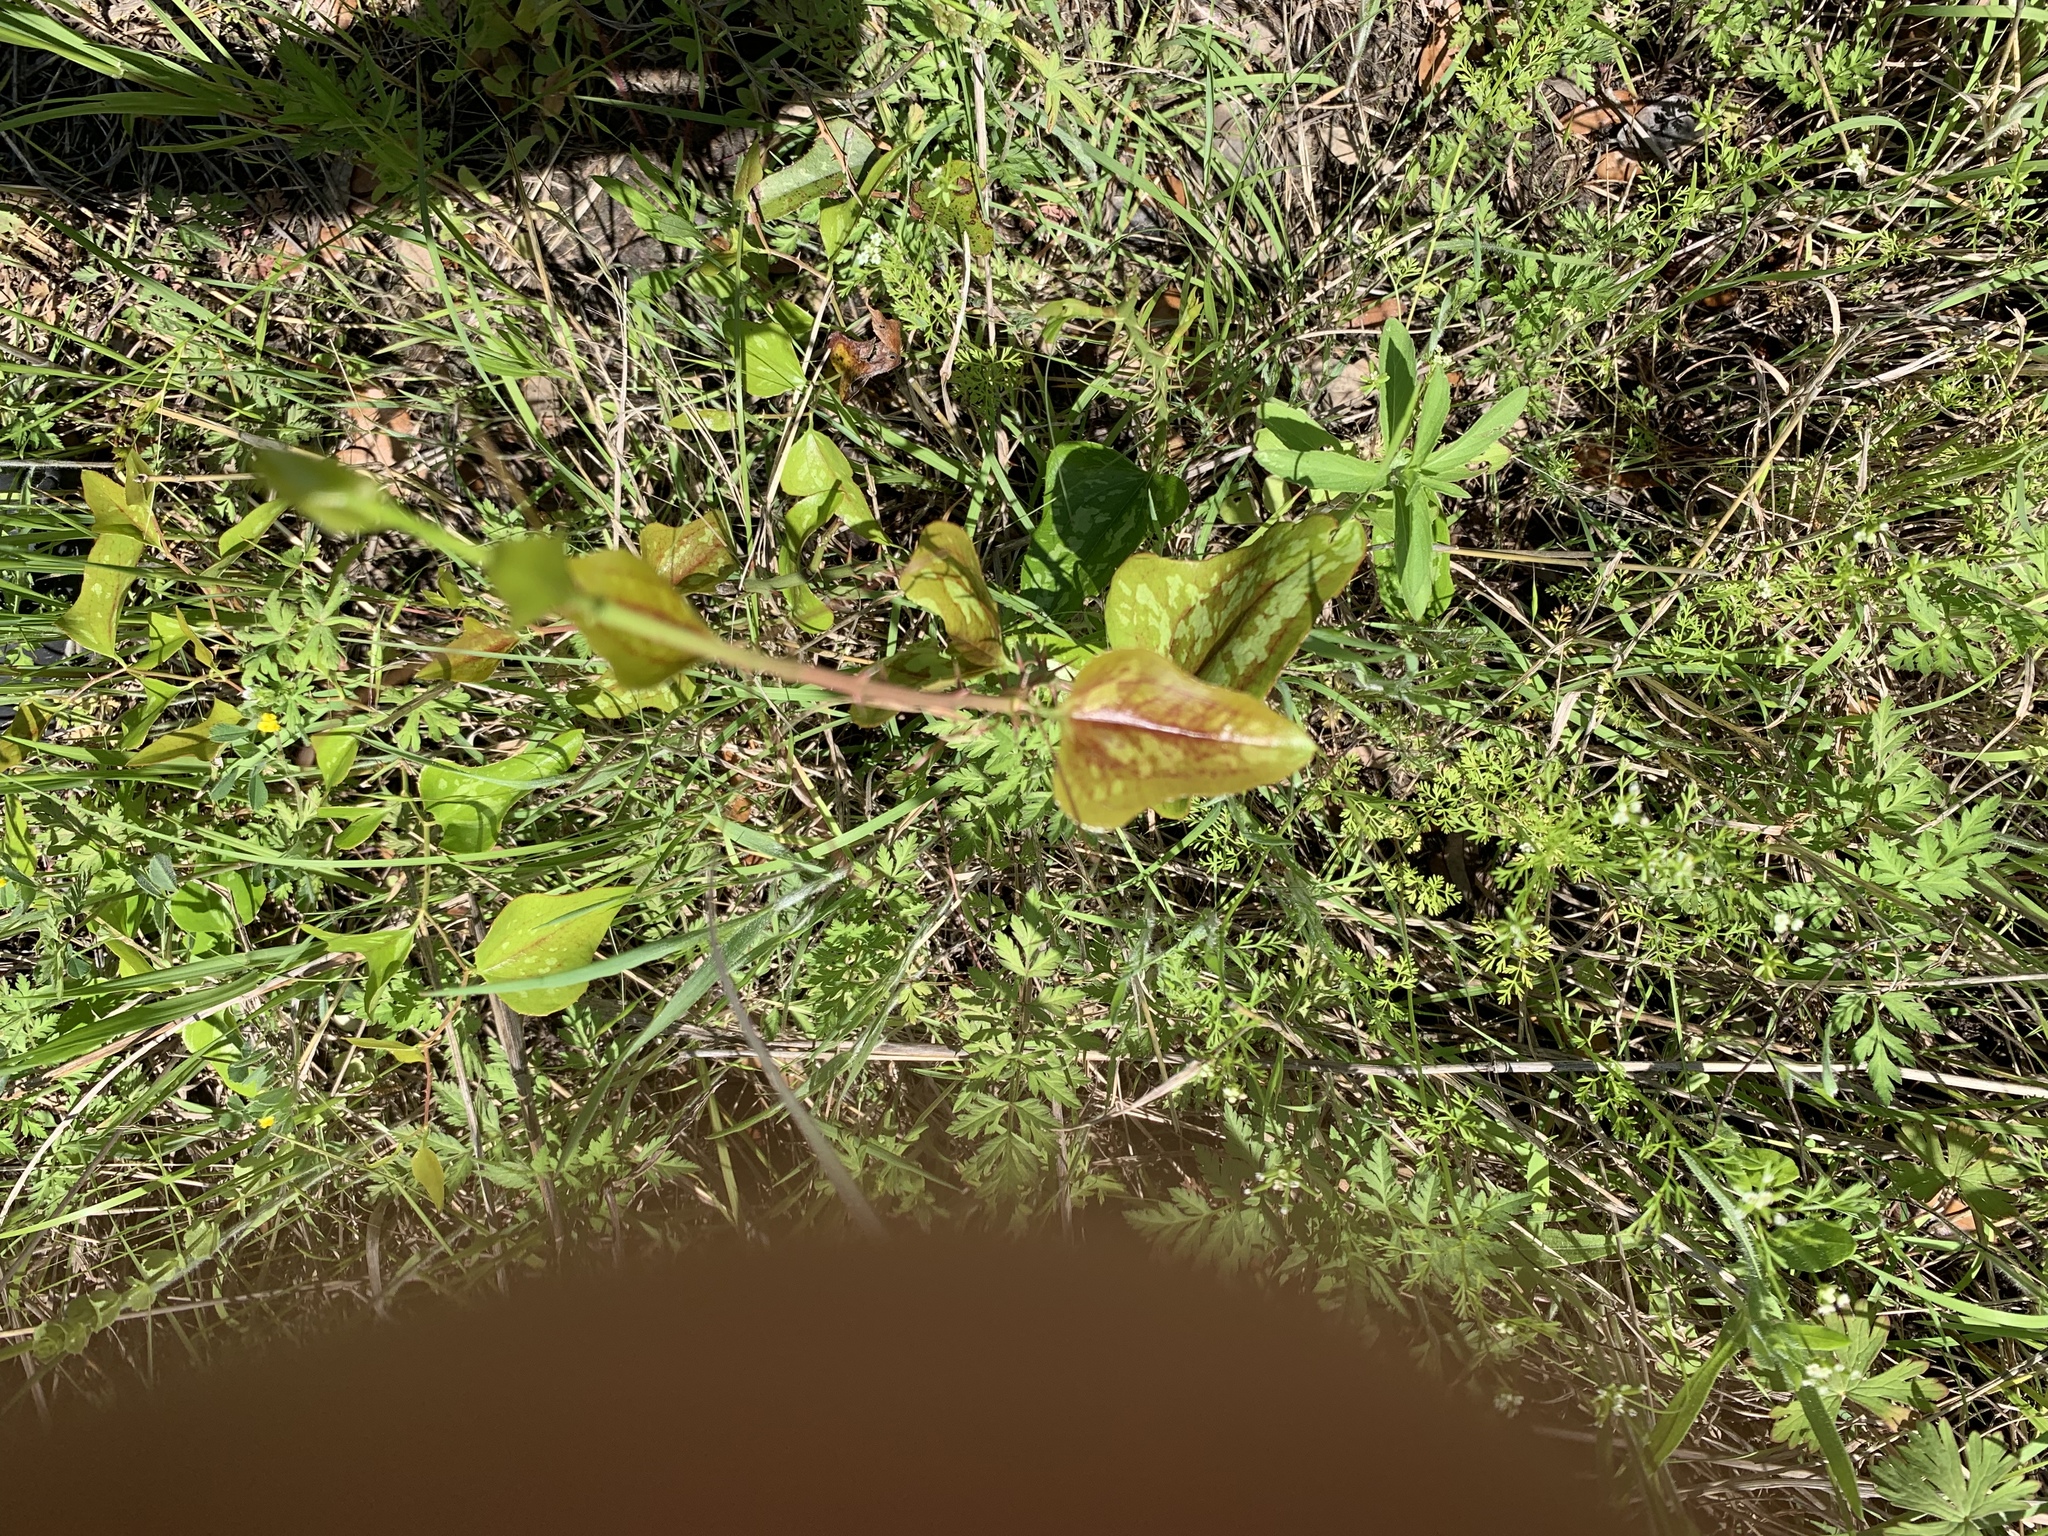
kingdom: Plantae
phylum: Tracheophyta
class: Liliopsida
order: Liliales
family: Smilacaceae
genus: Smilax
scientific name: Smilax bona-nox
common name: Catbrier
